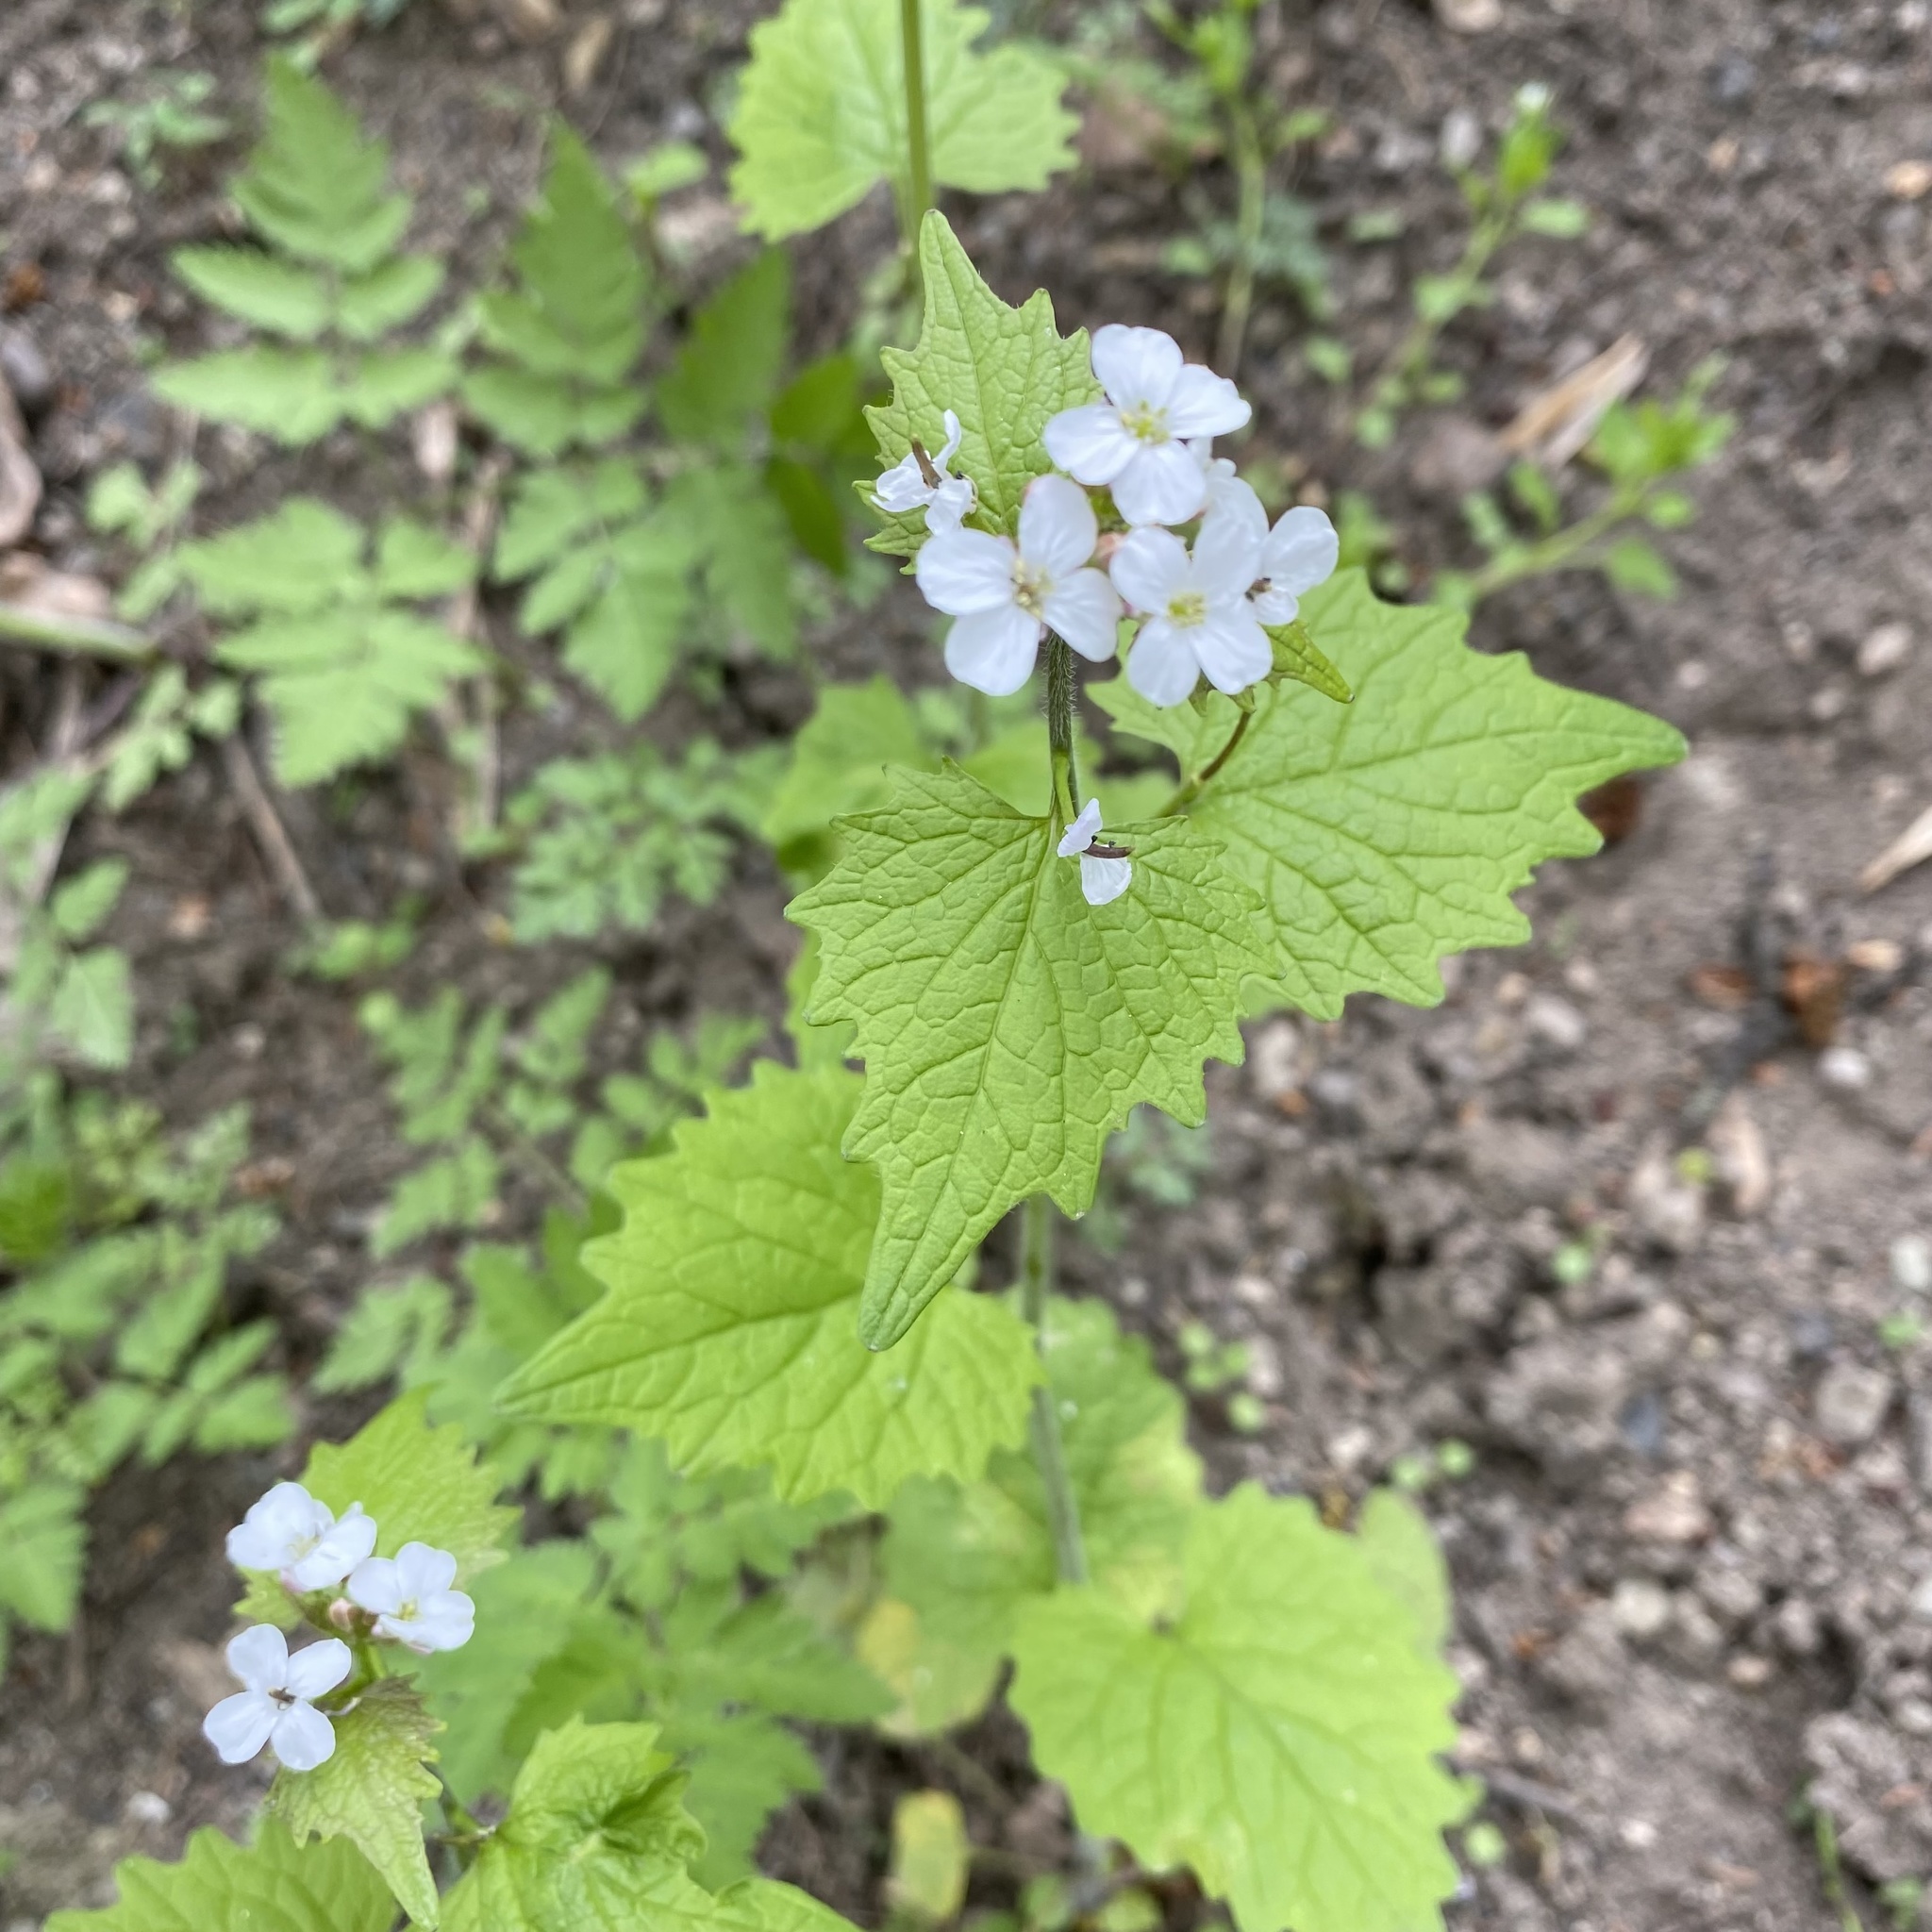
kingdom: Plantae
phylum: Tracheophyta
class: Magnoliopsida
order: Brassicales
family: Brassicaceae
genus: Alliaria
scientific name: Alliaria petiolata
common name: Garlic mustard
